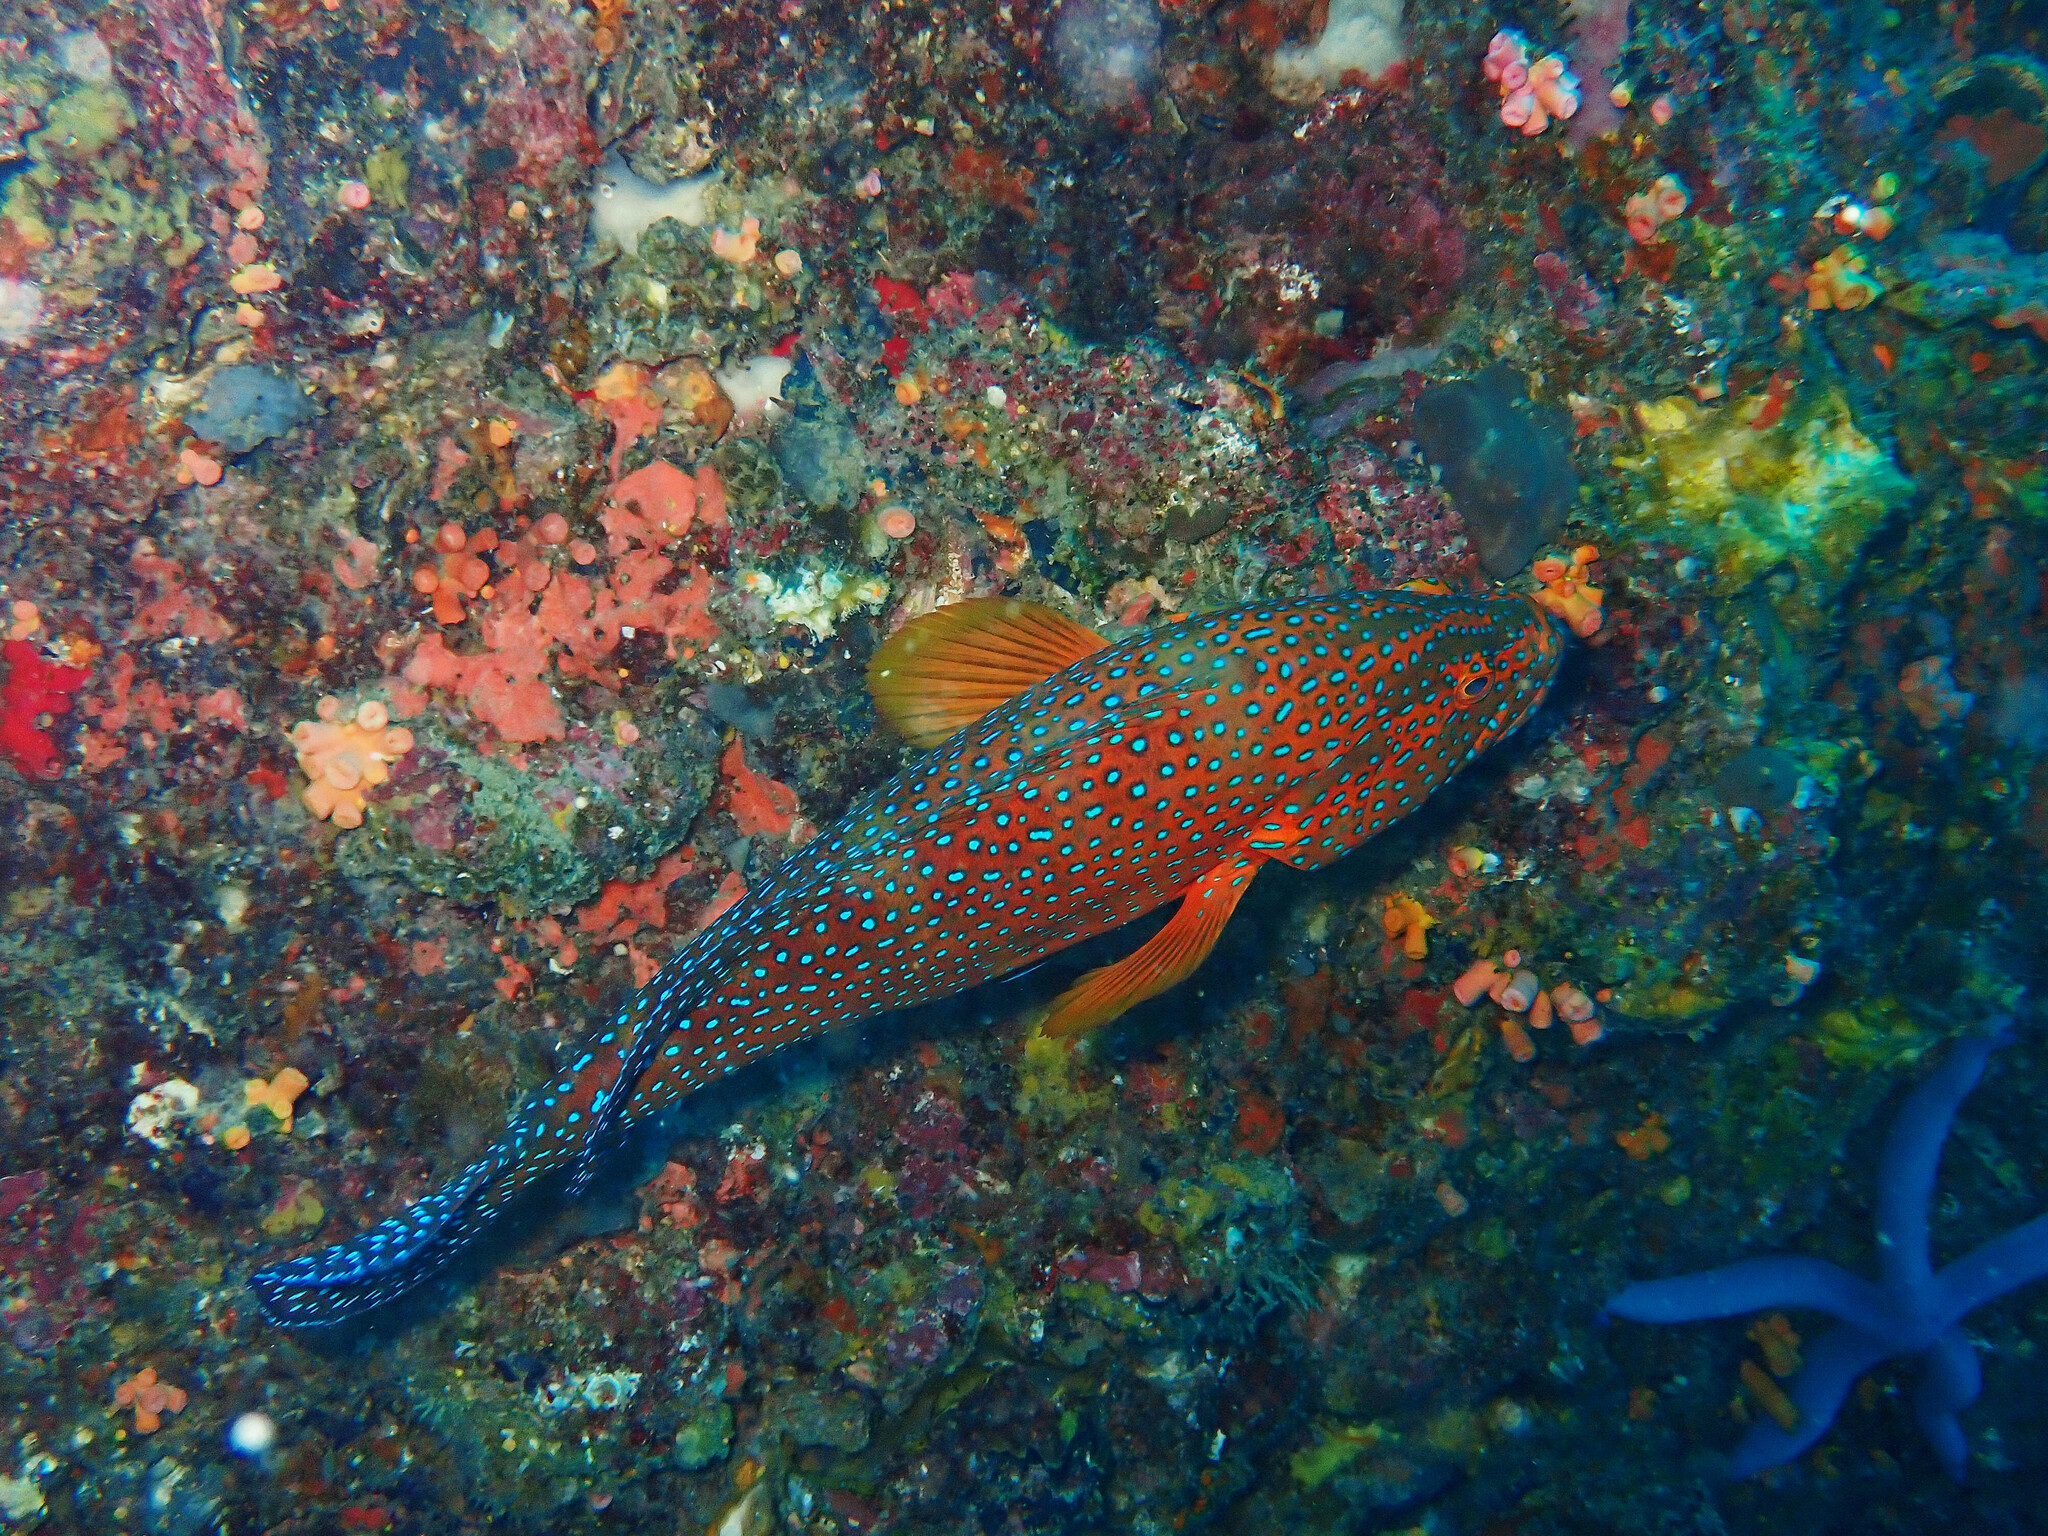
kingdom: Animalia
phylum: Chordata
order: Perciformes
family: Serranidae
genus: Cephalopholis
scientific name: Cephalopholis miniata
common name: Coral hind
